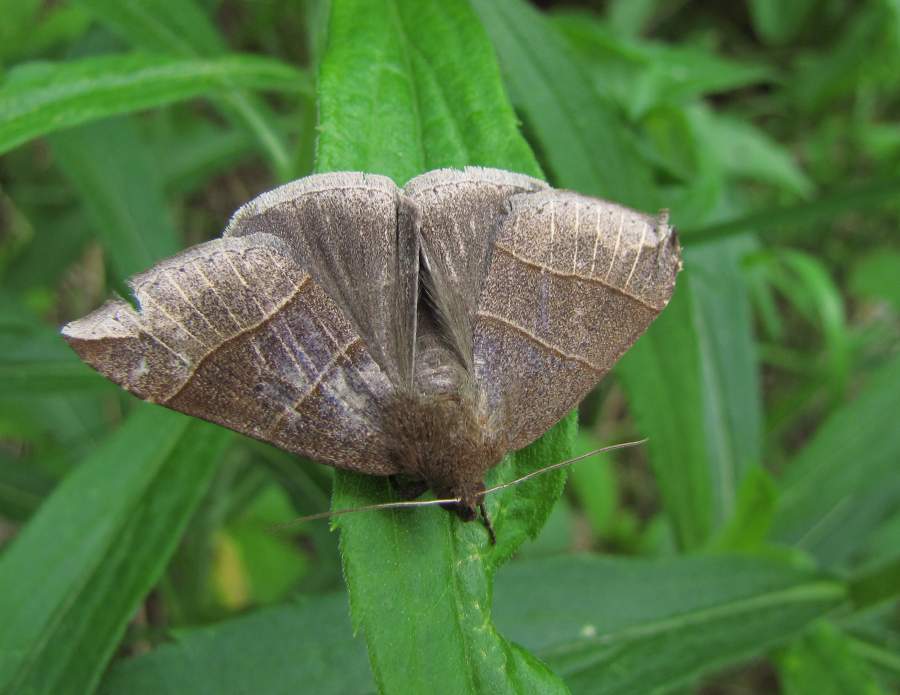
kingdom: Animalia
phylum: Arthropoda
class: Insecta
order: Lepidoptera
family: Erebidae
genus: Parallelia
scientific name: Parallelia bistriaris
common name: Maple looper moth
